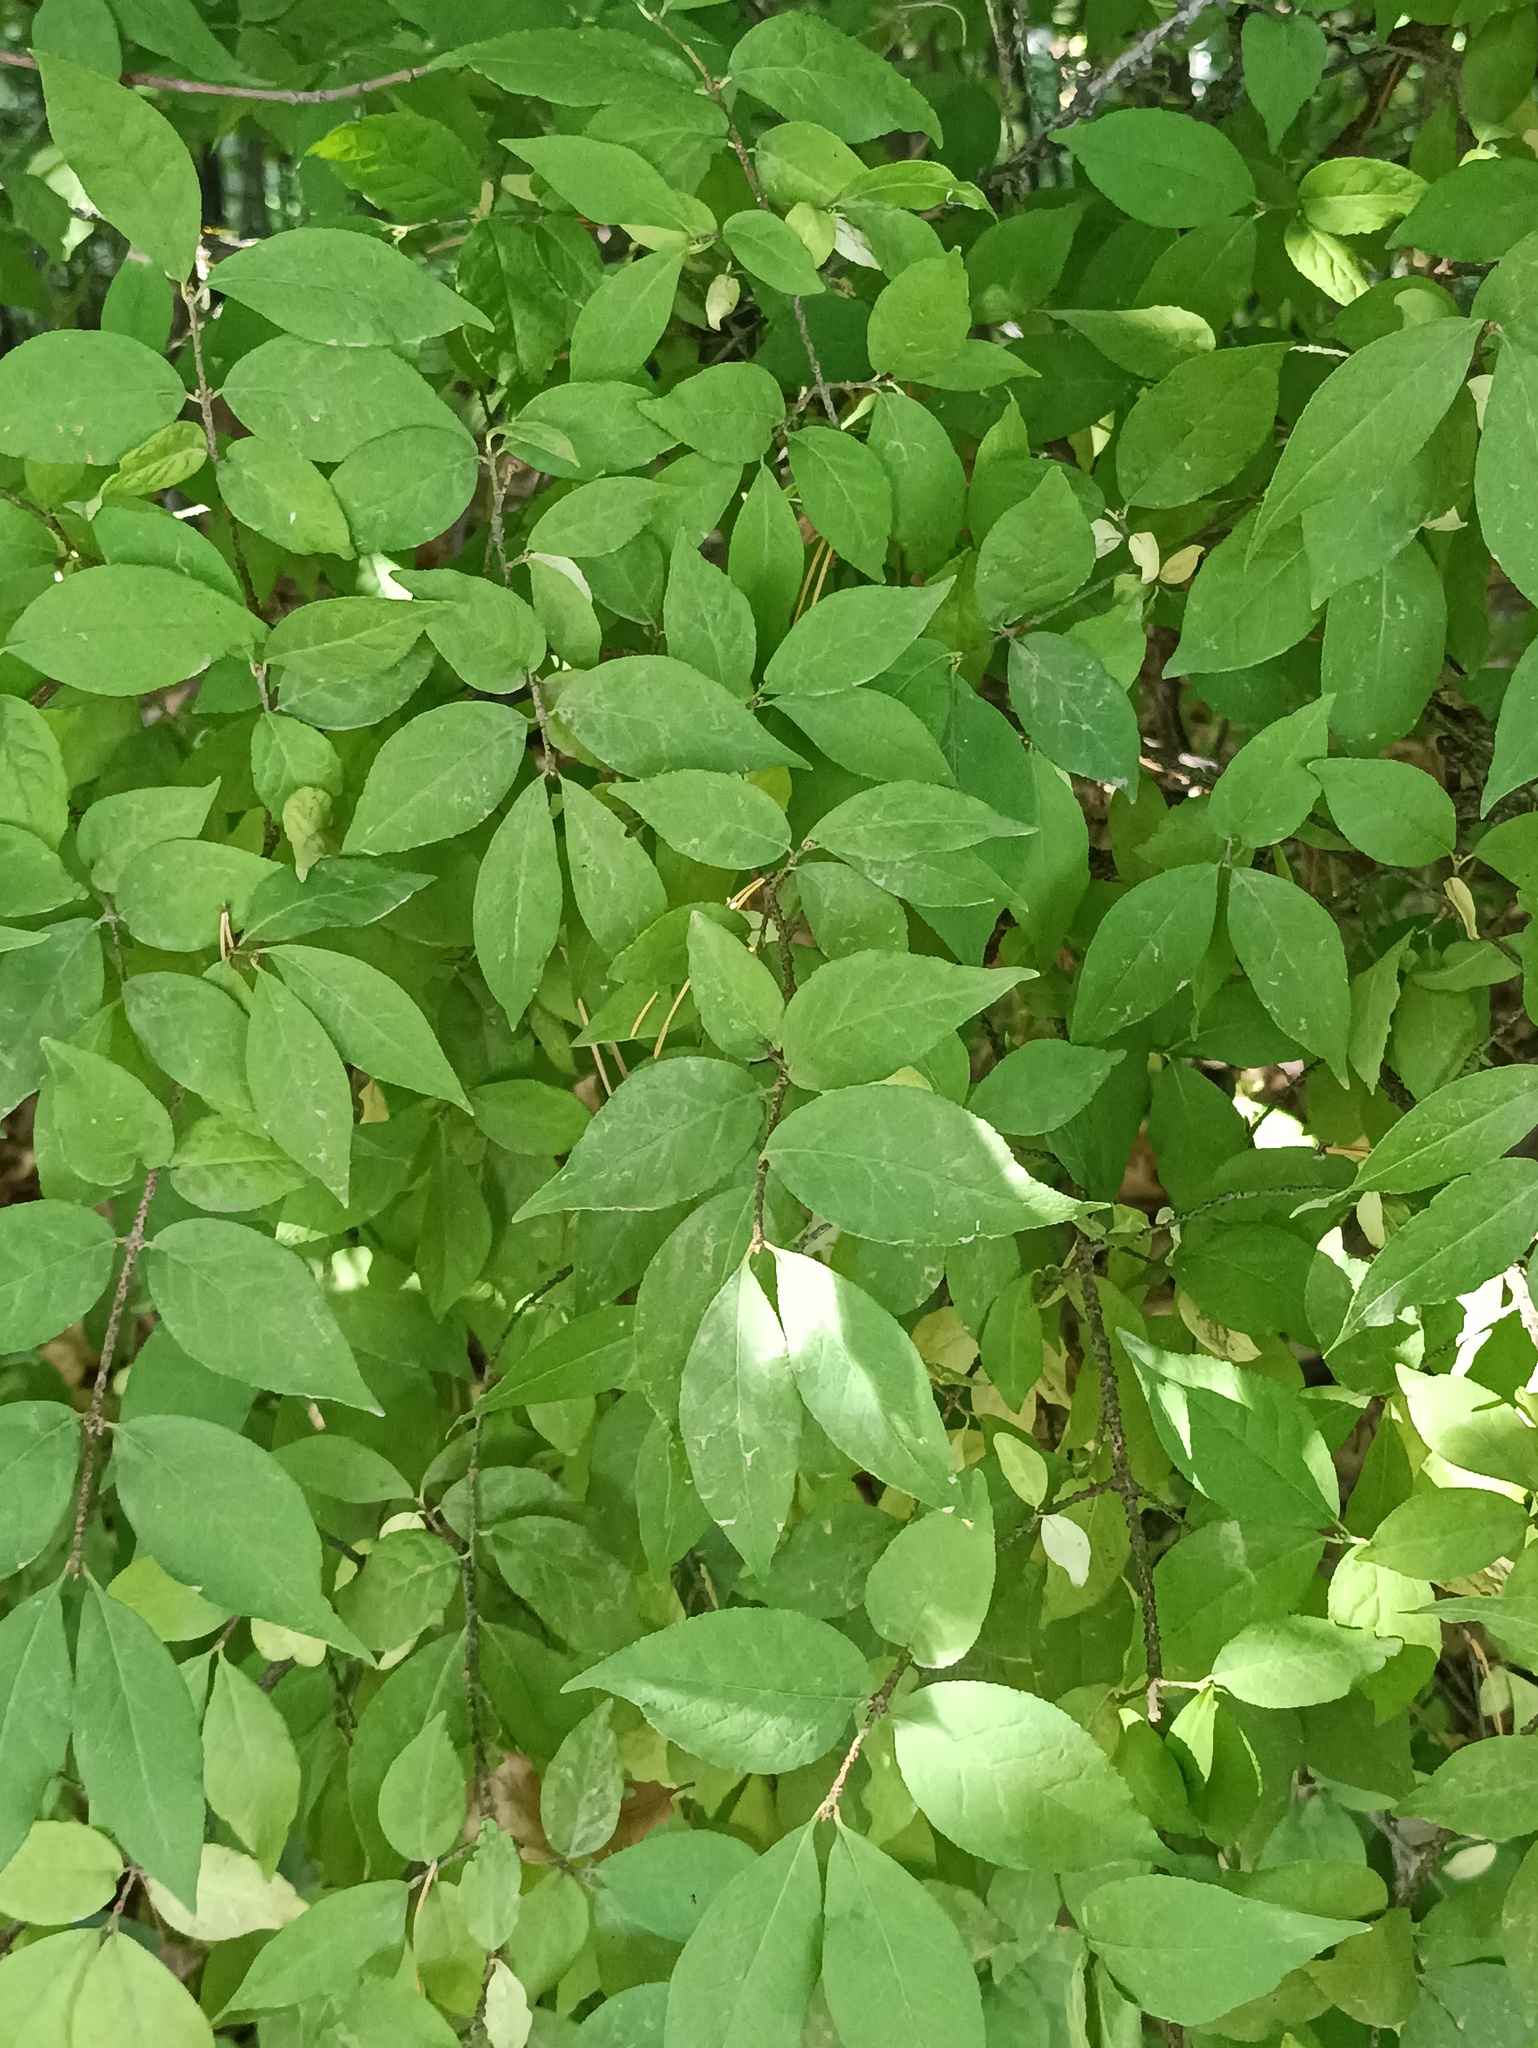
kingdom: Plantae
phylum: Tracheophyta
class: Magnoliopsida
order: Celastrales
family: Celastraceae
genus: Euonymus
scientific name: Euonymus verrucosus
